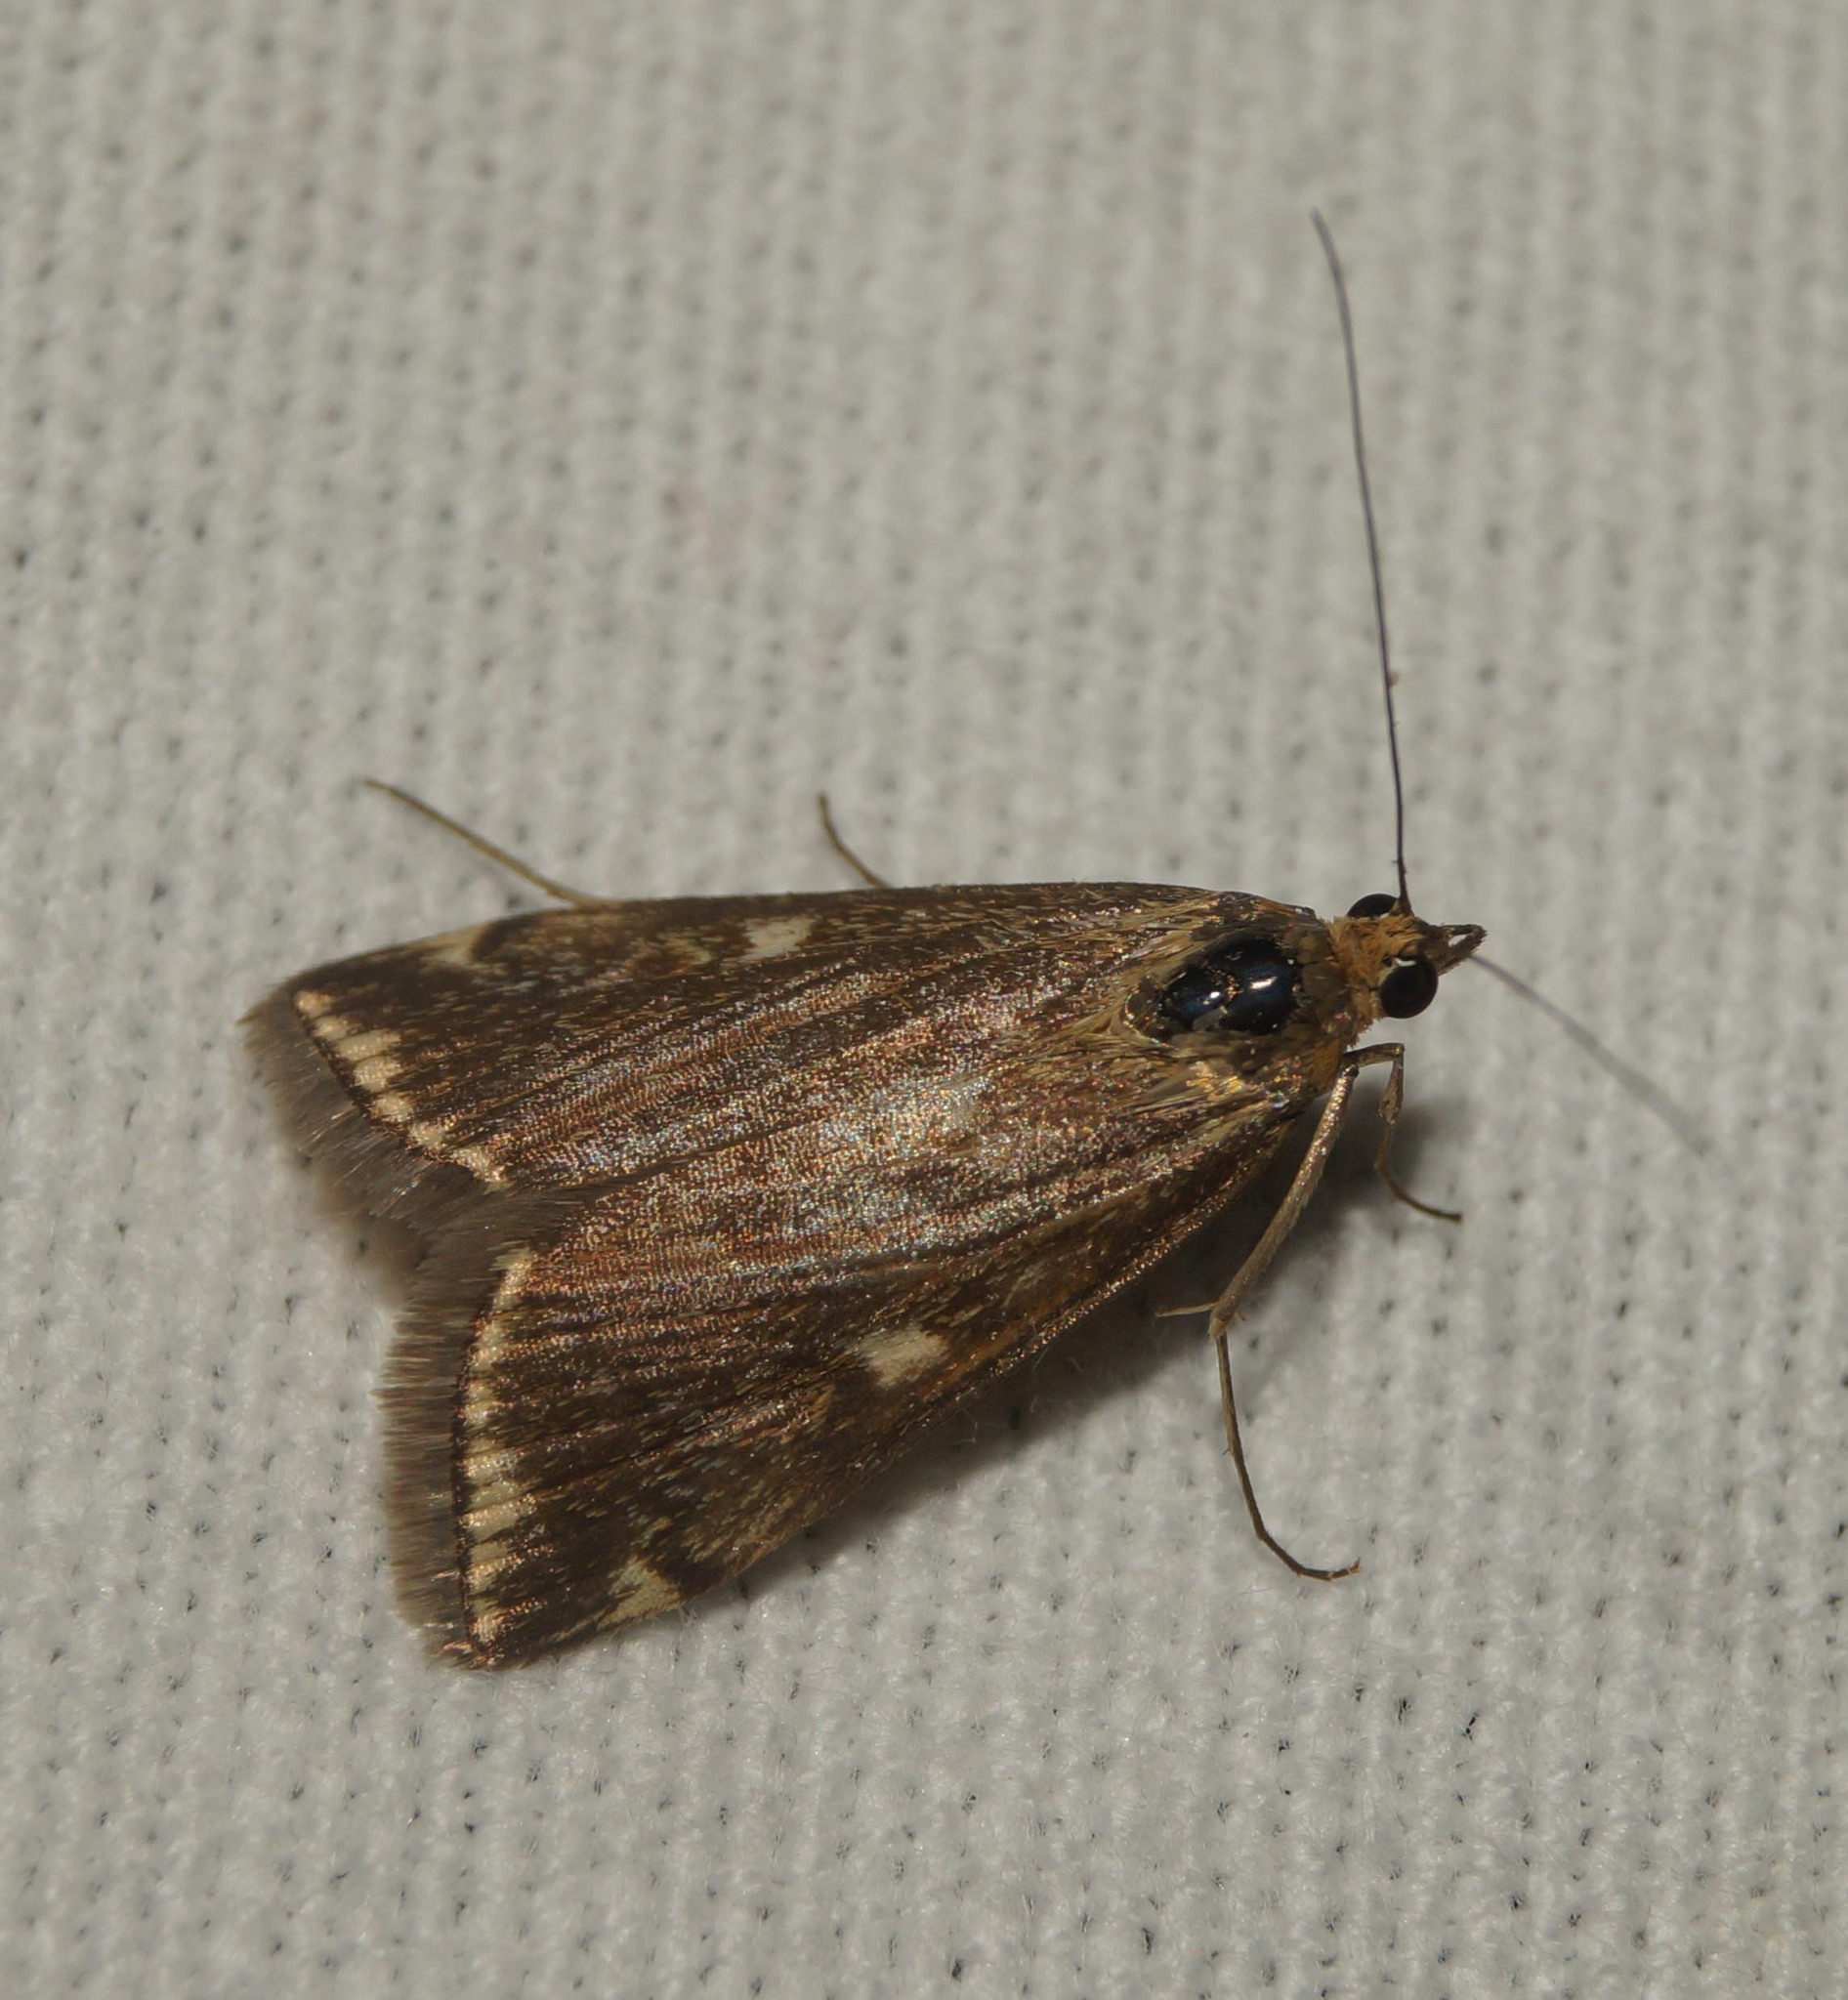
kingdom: Animalia
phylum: Arthropoda
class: Insecta
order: Lepidoptera
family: Crambidae
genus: Loxostege
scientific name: Loxostege sticticalis
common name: Crambid moth
